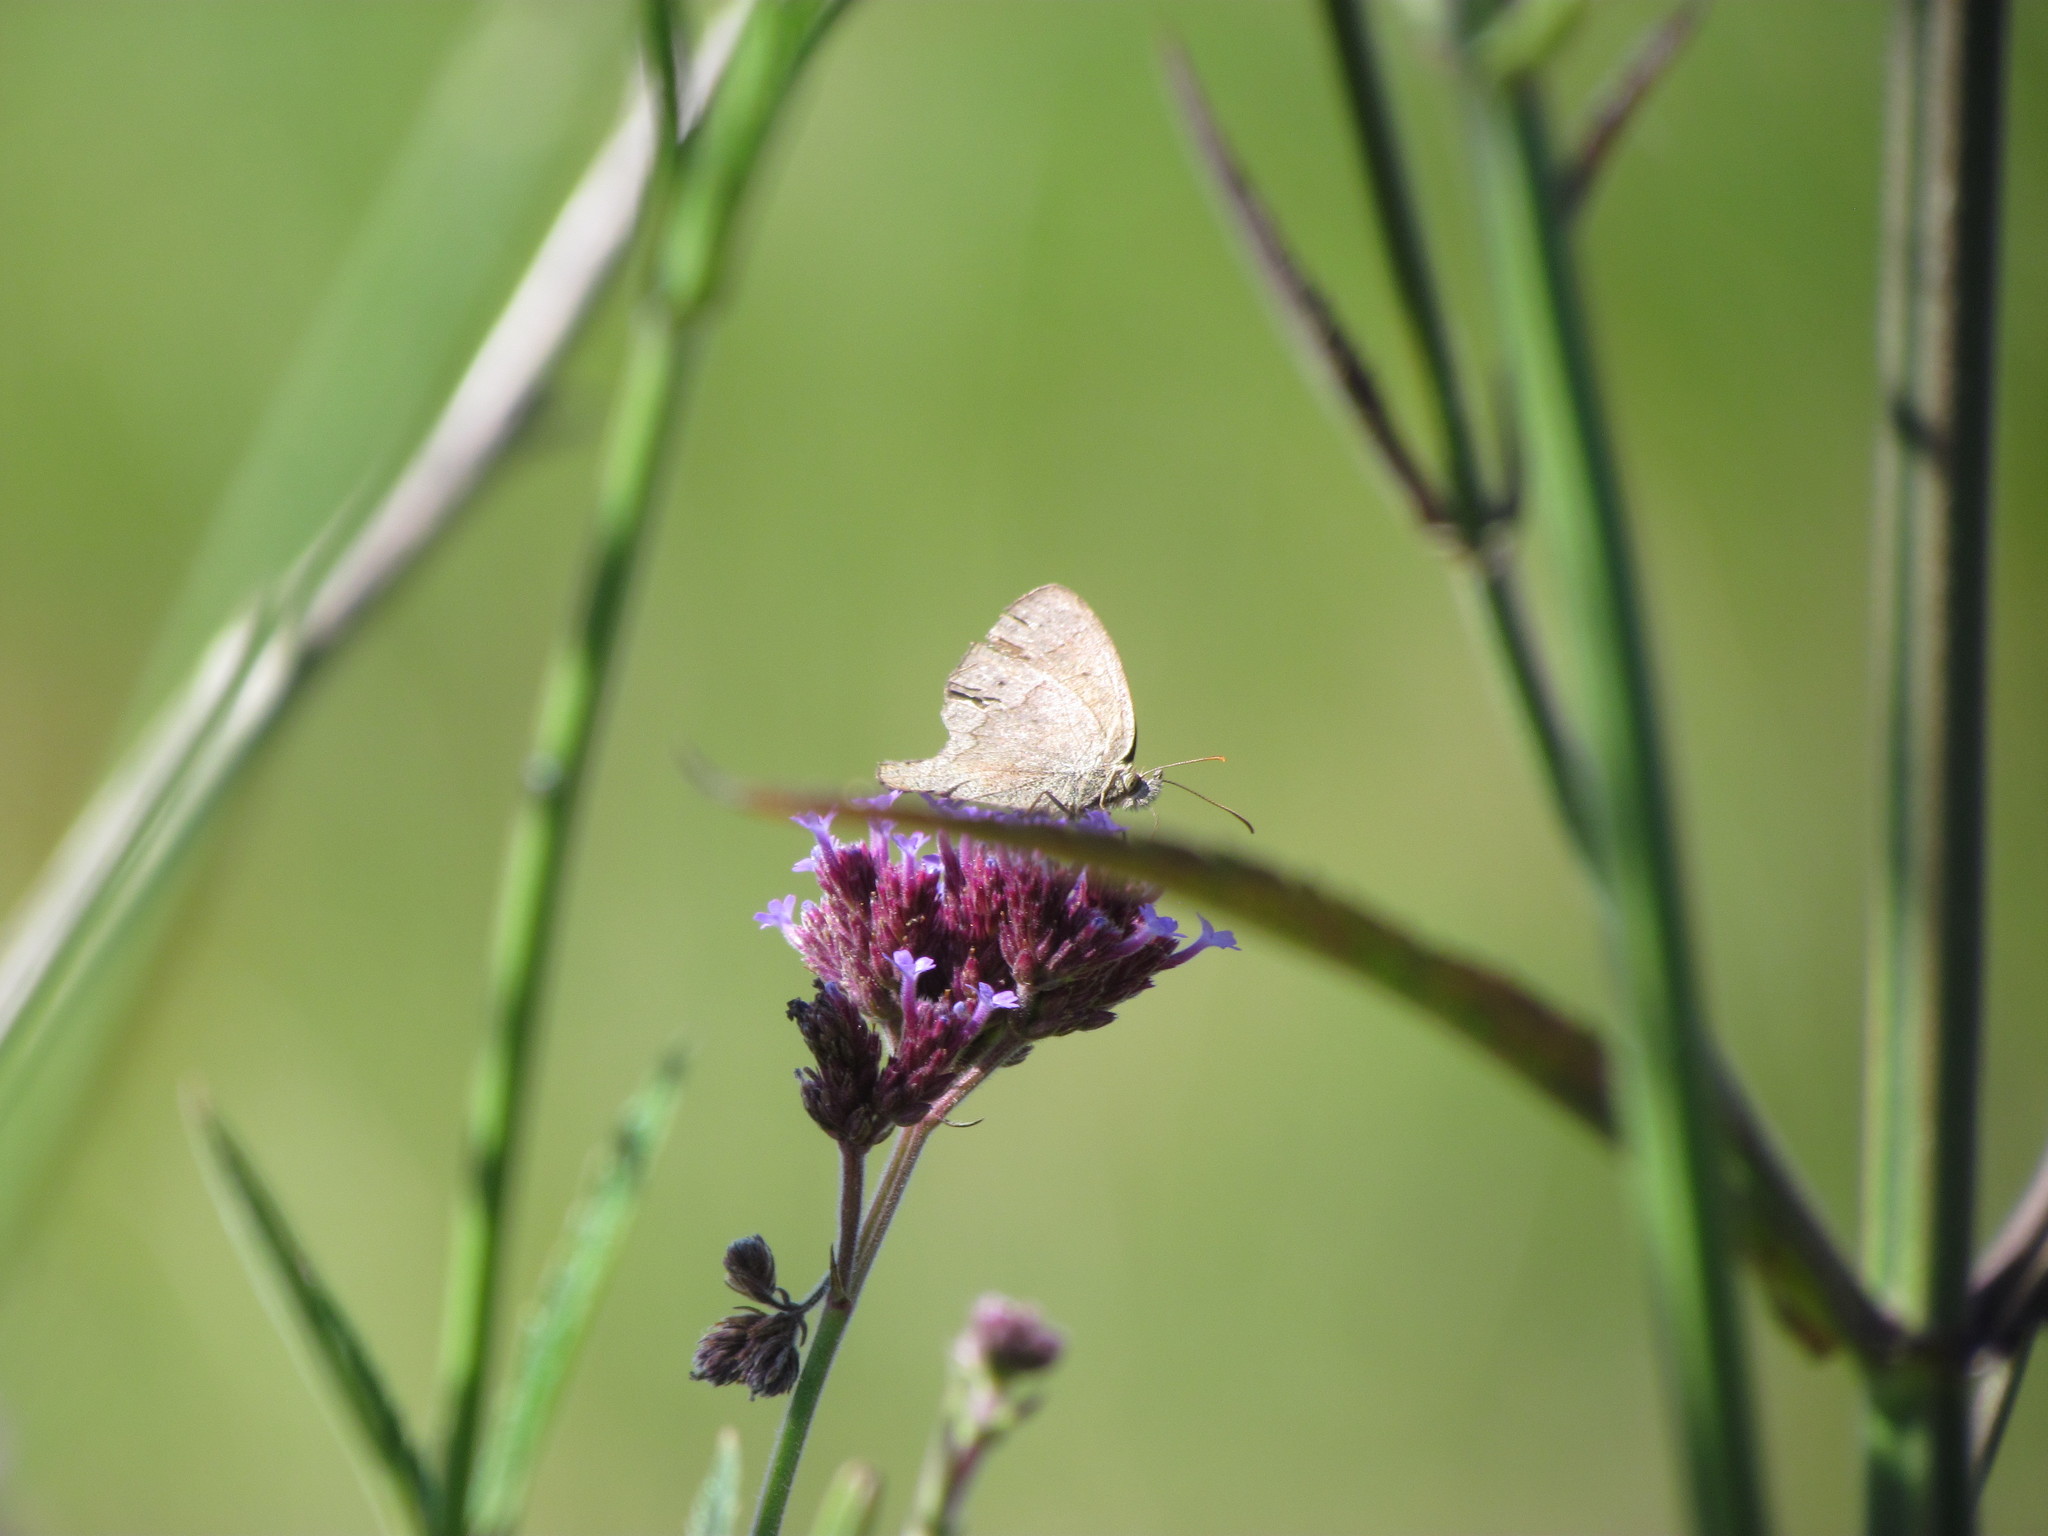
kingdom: Animalia
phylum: Arthropoda
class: Insecta
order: Lepidoptera
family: Nymphalidae
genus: Yphthimoides
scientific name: Yphthimoides celmis
